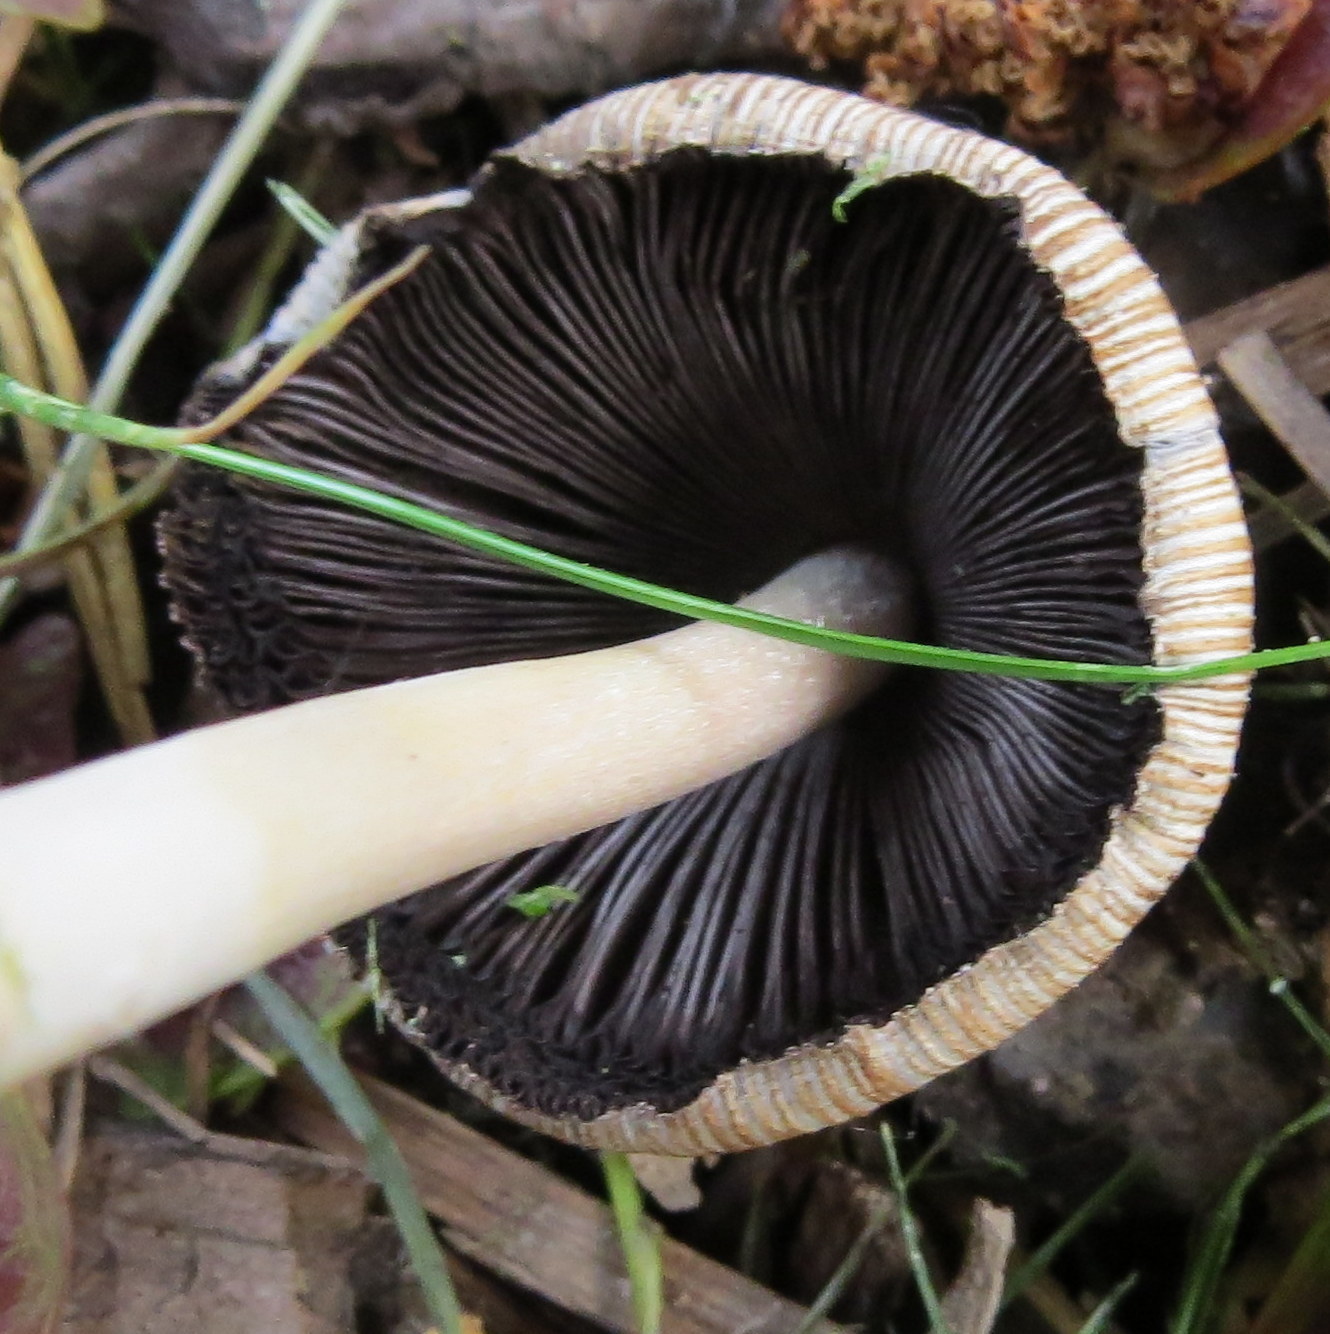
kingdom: Fungi
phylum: Basidiomycota
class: Agaricomycetes
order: Agaricales
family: Psathyrellaceae
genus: Coprinellus
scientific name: Coprinellus micaceus
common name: Glistening ink-cap
